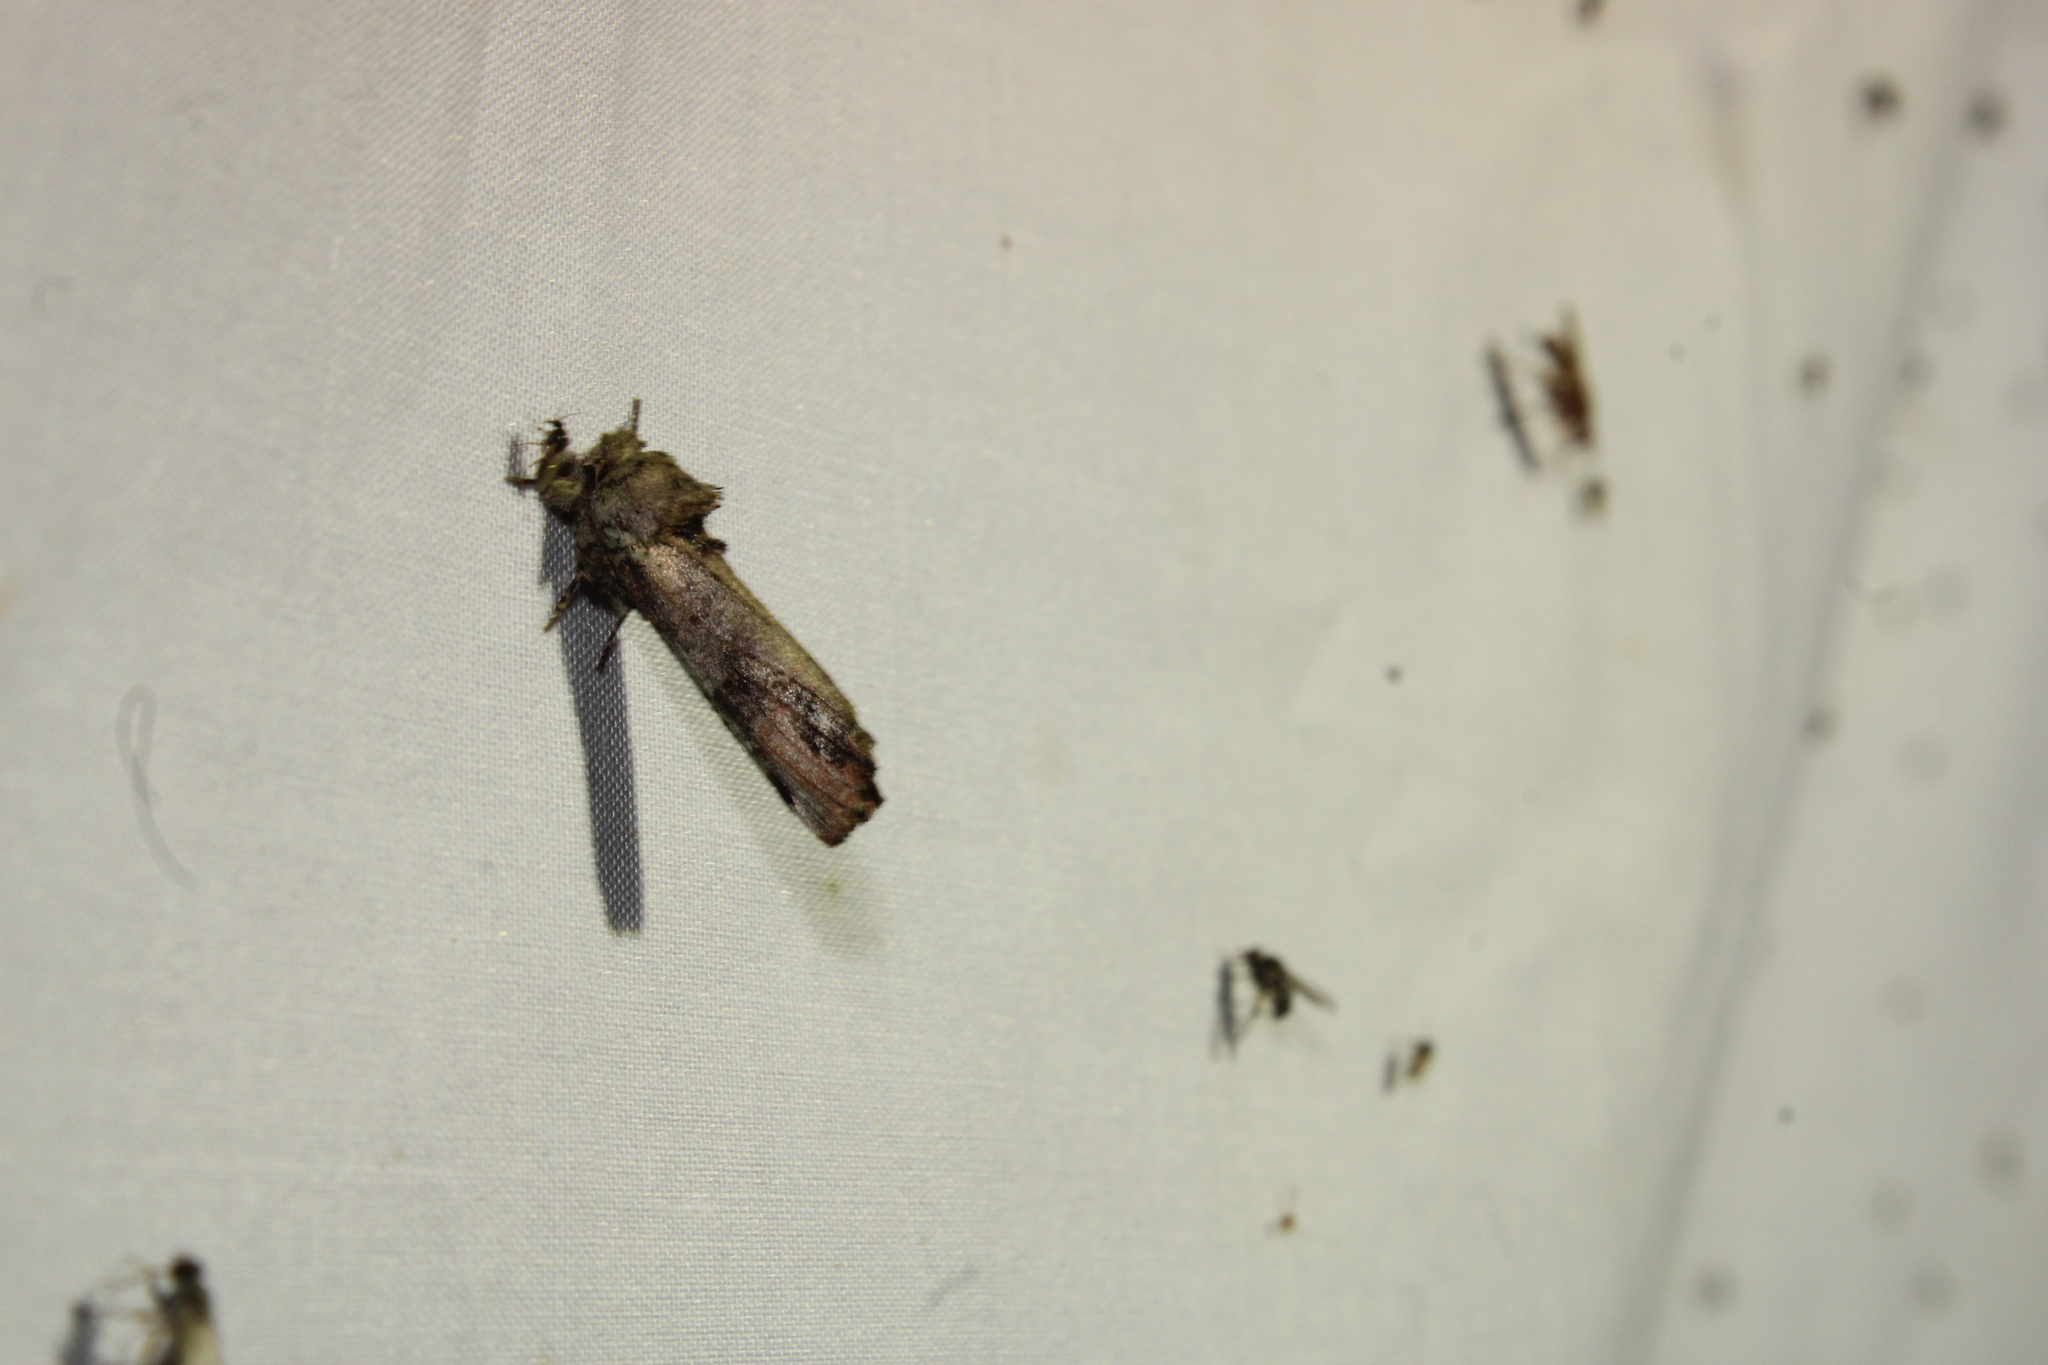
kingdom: Animalia
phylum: Arthropoda
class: Insecta
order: Lepidoptera
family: Notodontidae
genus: Schizura
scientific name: Schizura
